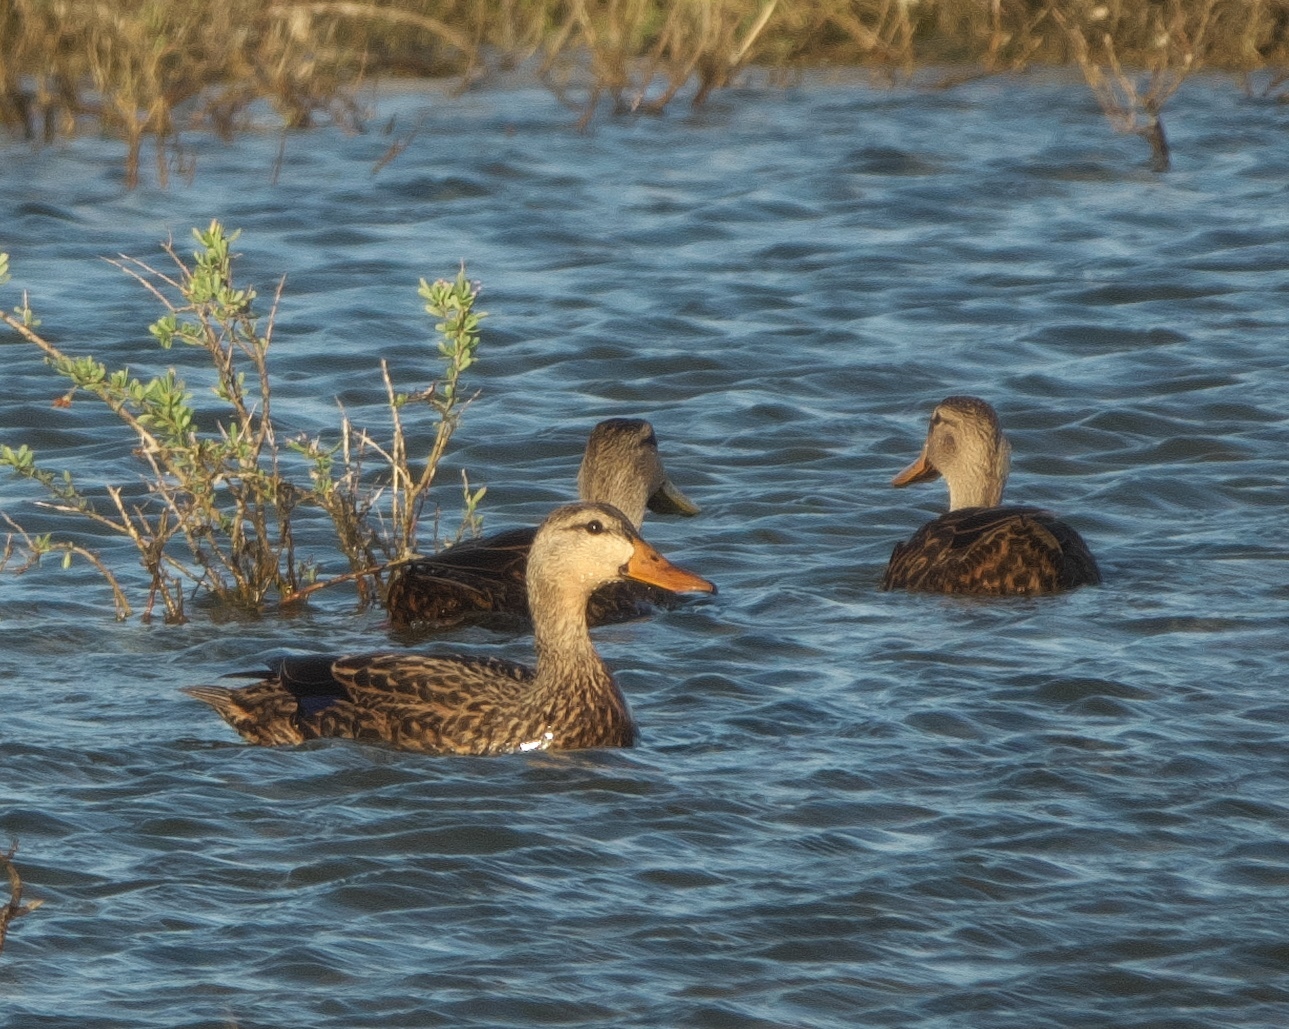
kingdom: Animalia
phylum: Chordata
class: Aves
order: Anseriformes
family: Anatidae
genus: Anas
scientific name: Anas fulvigula
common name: Mottled duck
